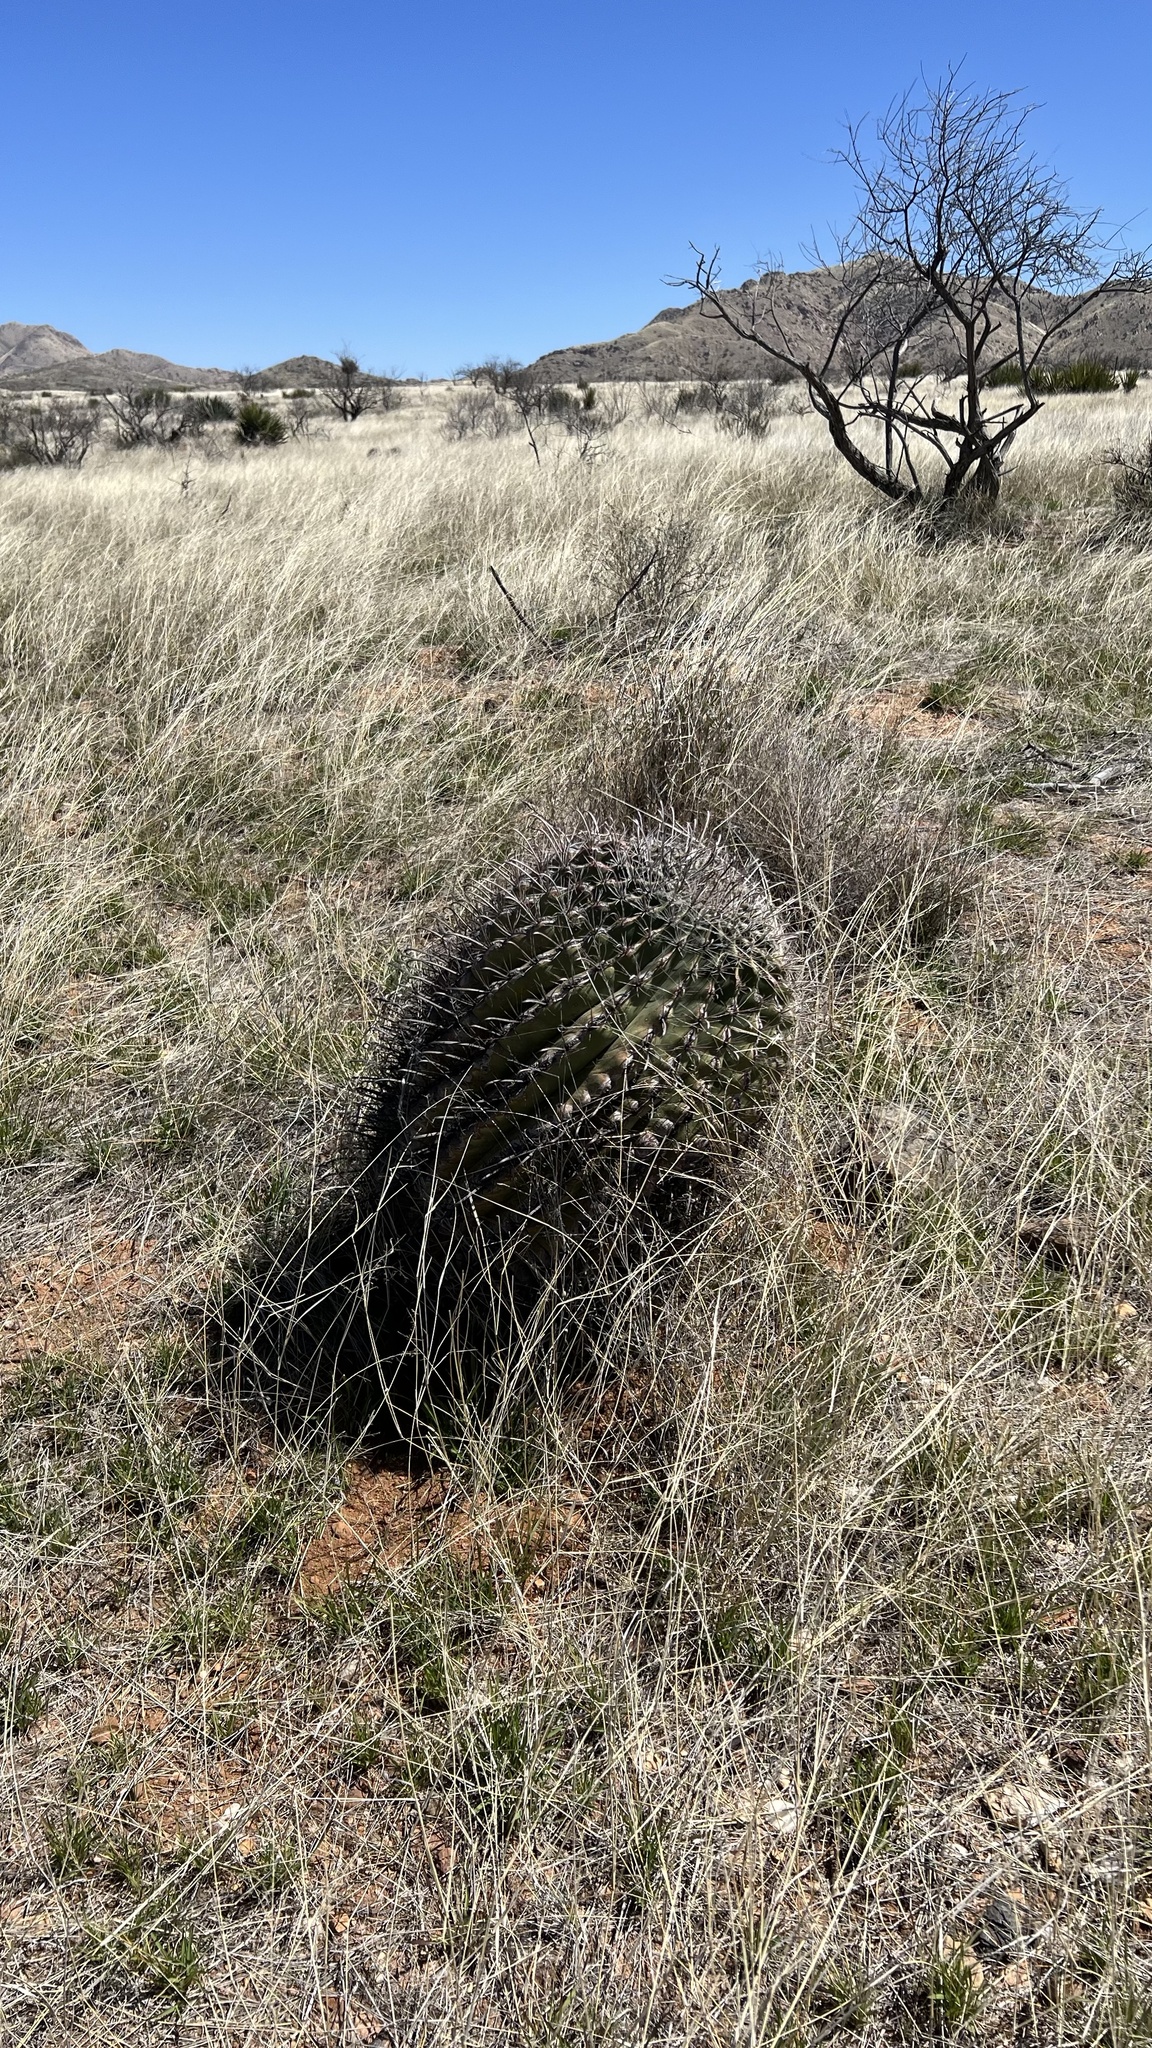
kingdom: Plantae
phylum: Tracheophyta
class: Magnoliopsida
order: Caryophyllales
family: Cactaceae
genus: Ferocactus
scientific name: Ferocactus wislizeni
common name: Candy barrel cactus
